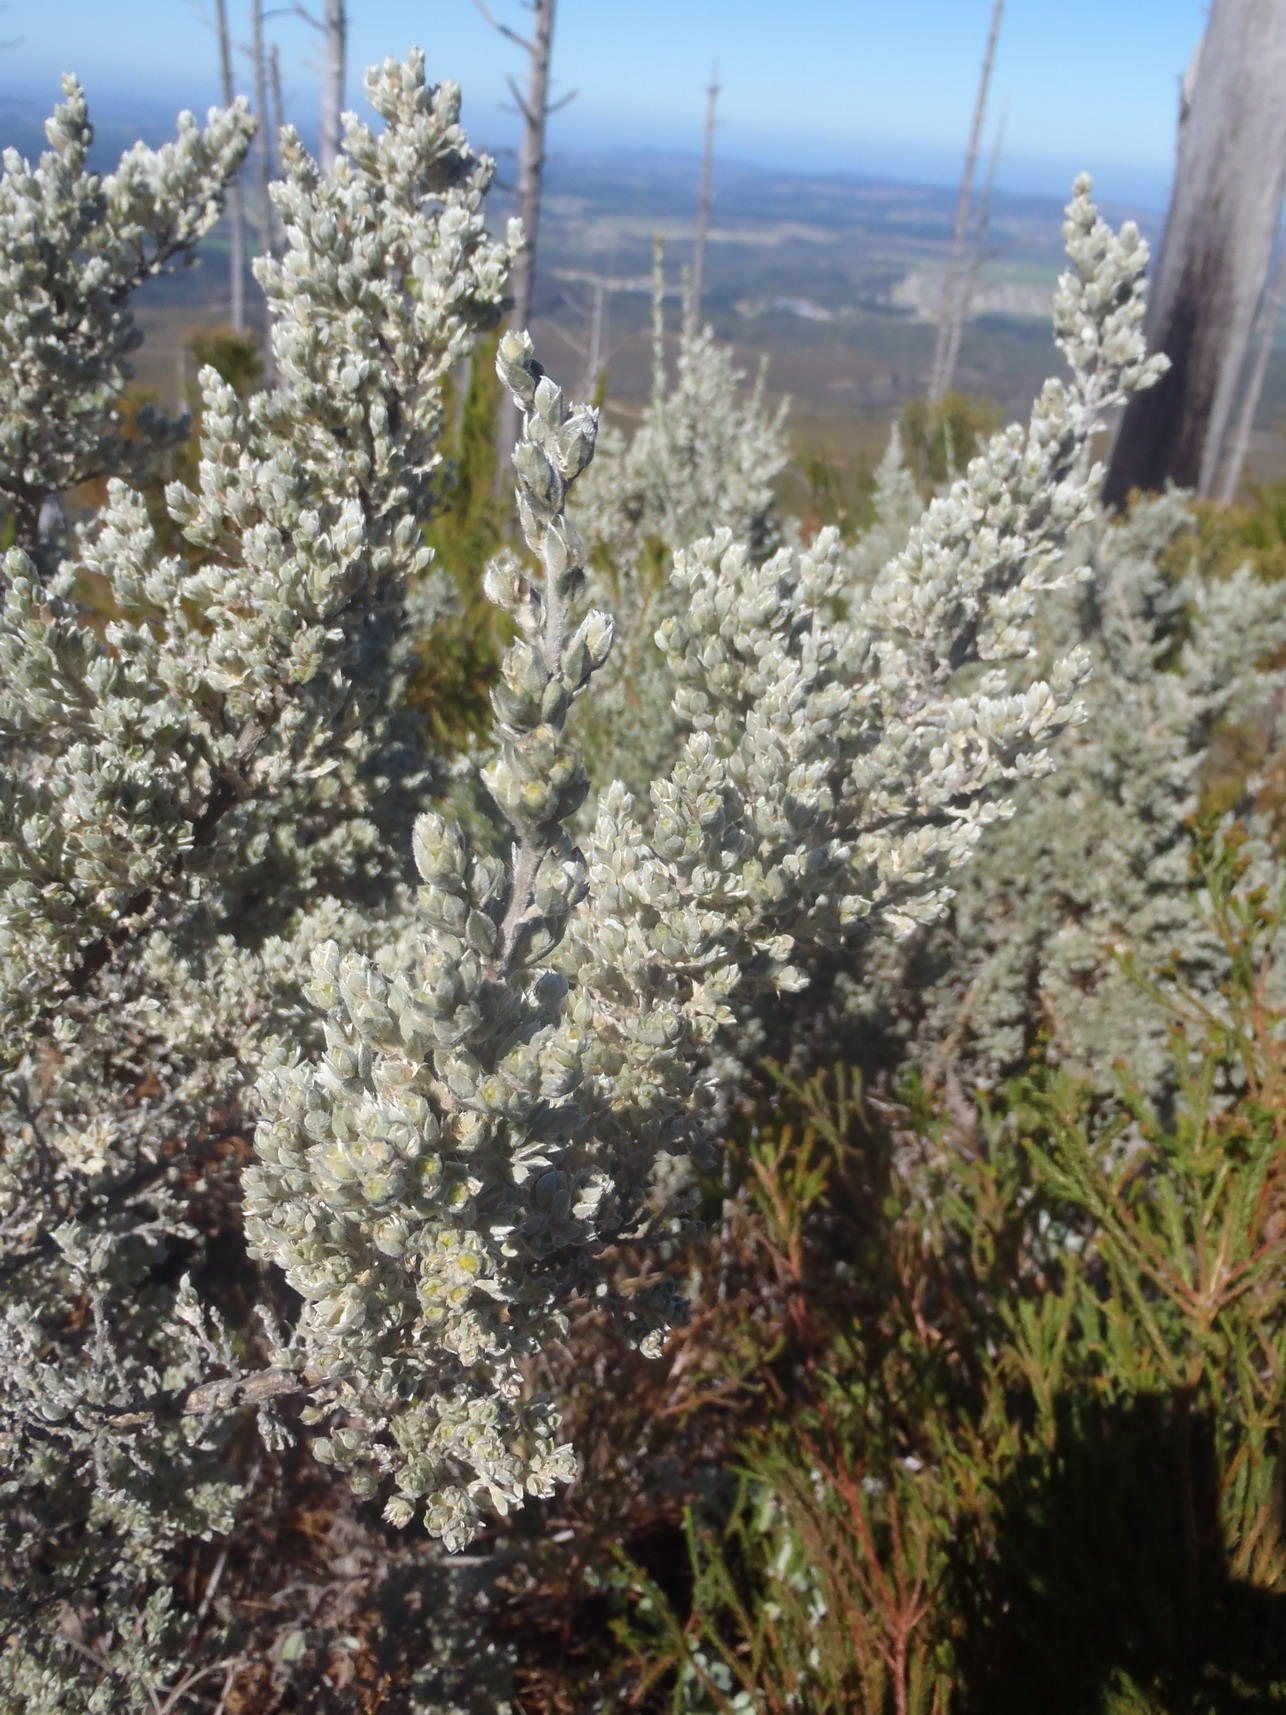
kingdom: Plantae
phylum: Tracheophyta
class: Magnoliopsida
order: Fabales
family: Fabaceae
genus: Amphithalea
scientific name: Amphithalea fourcadei
